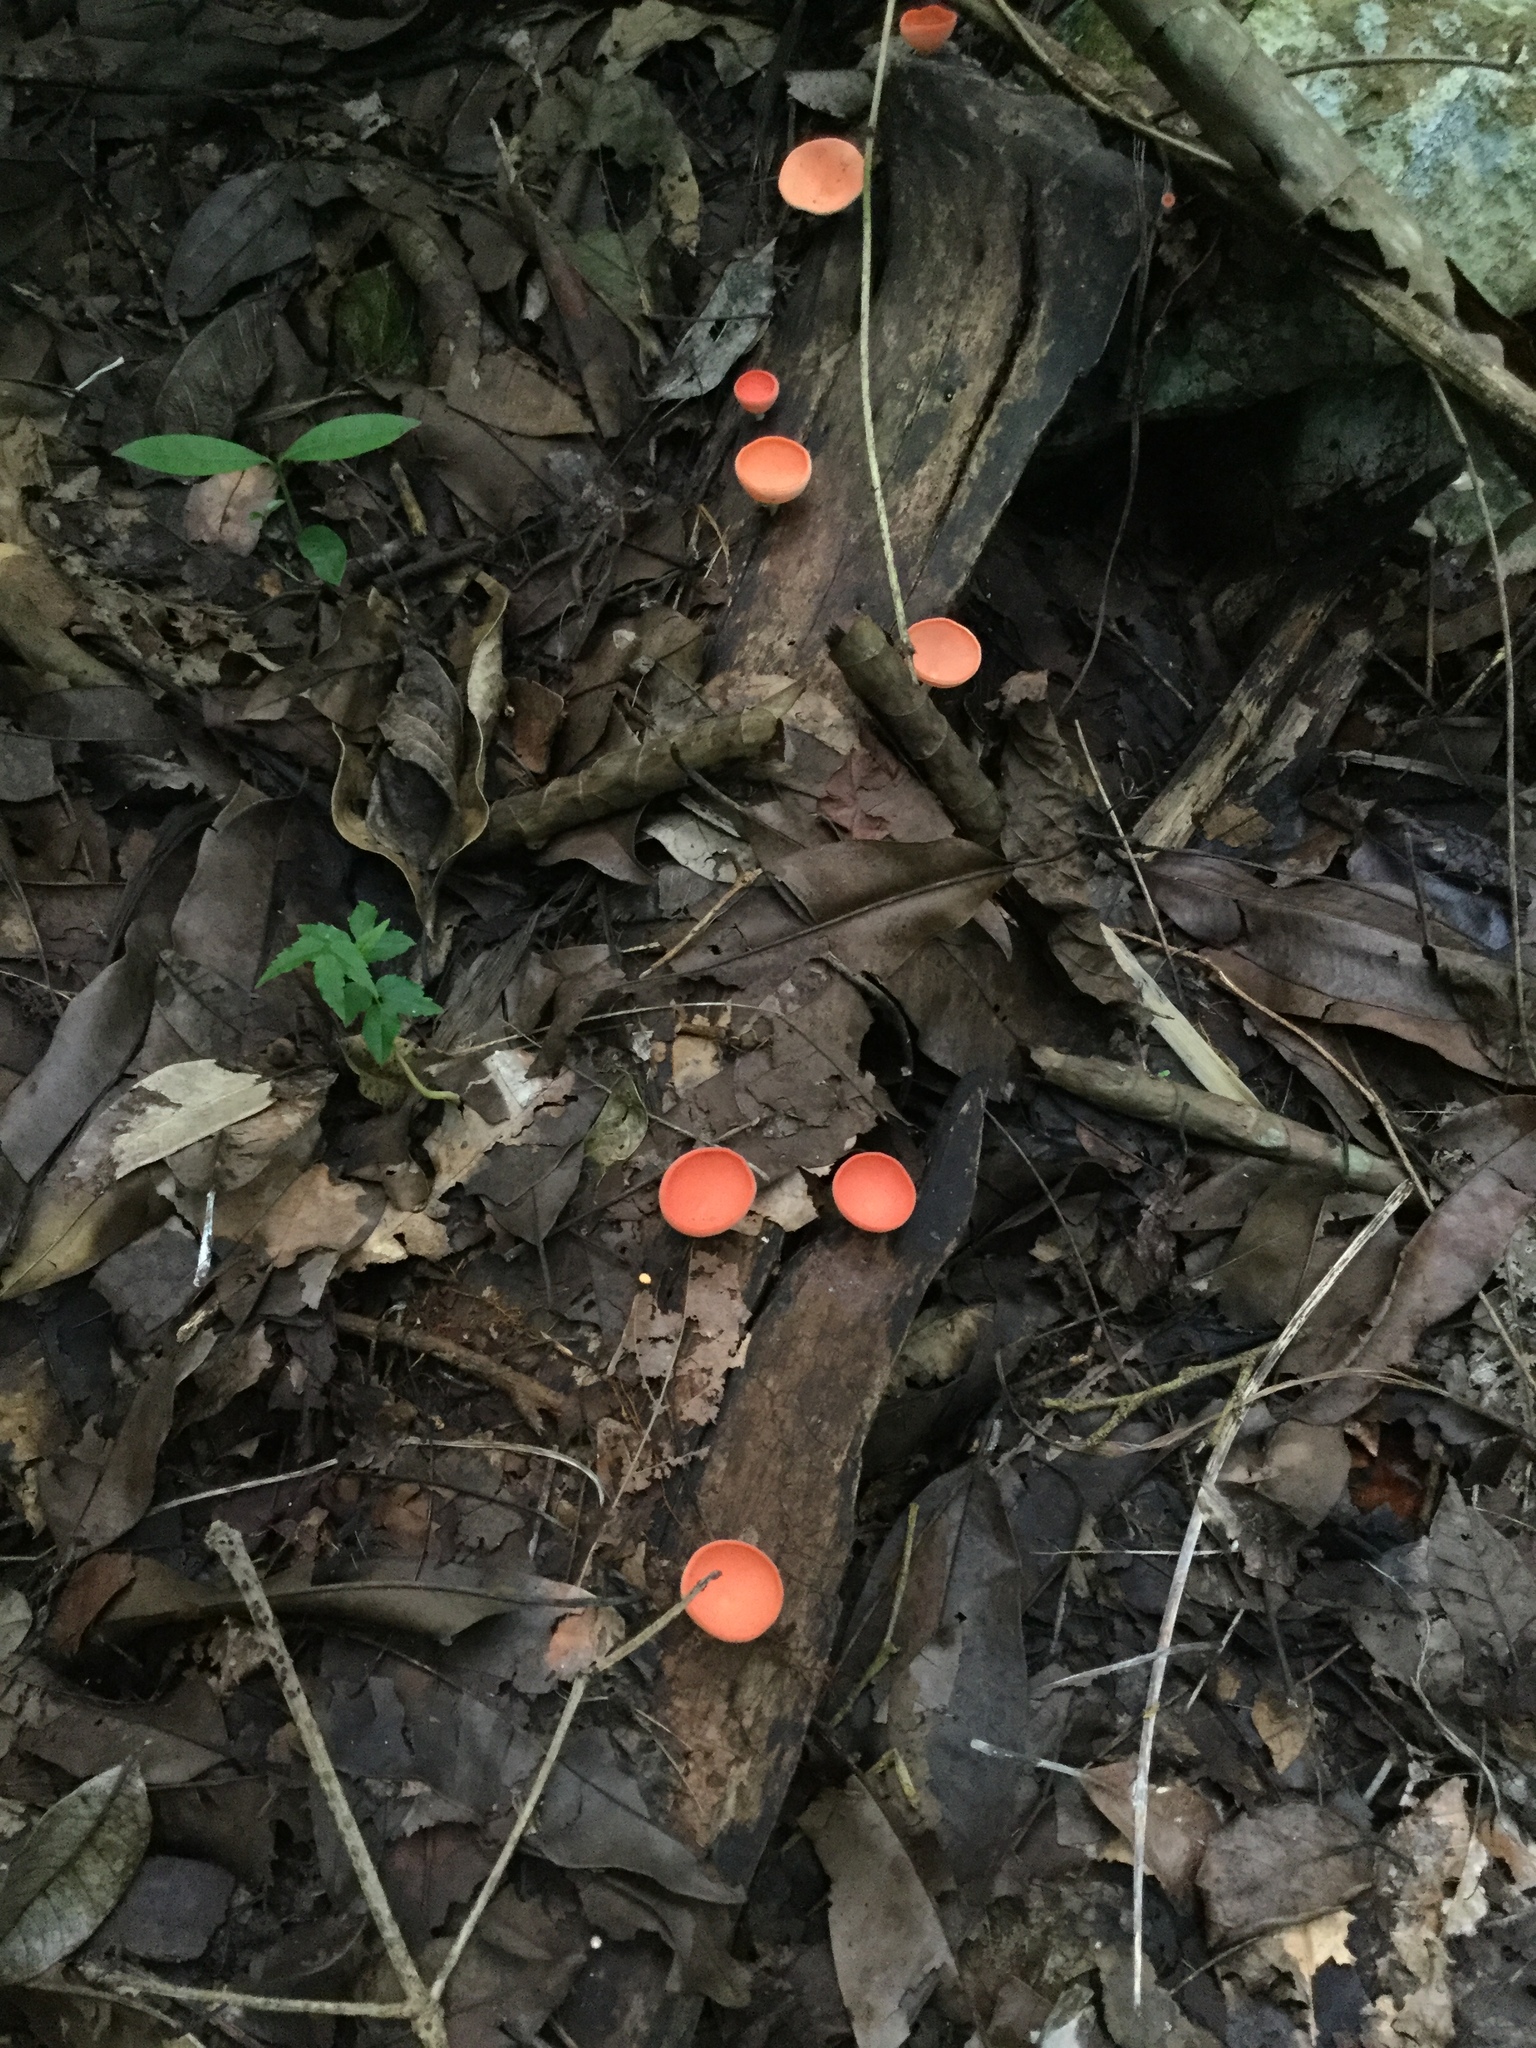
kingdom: Fungi
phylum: Ascomycota
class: Pezizomycetes
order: Pezizales
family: Sarcoscyphaceae
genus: Cookeina
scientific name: Cookeina speciosa
